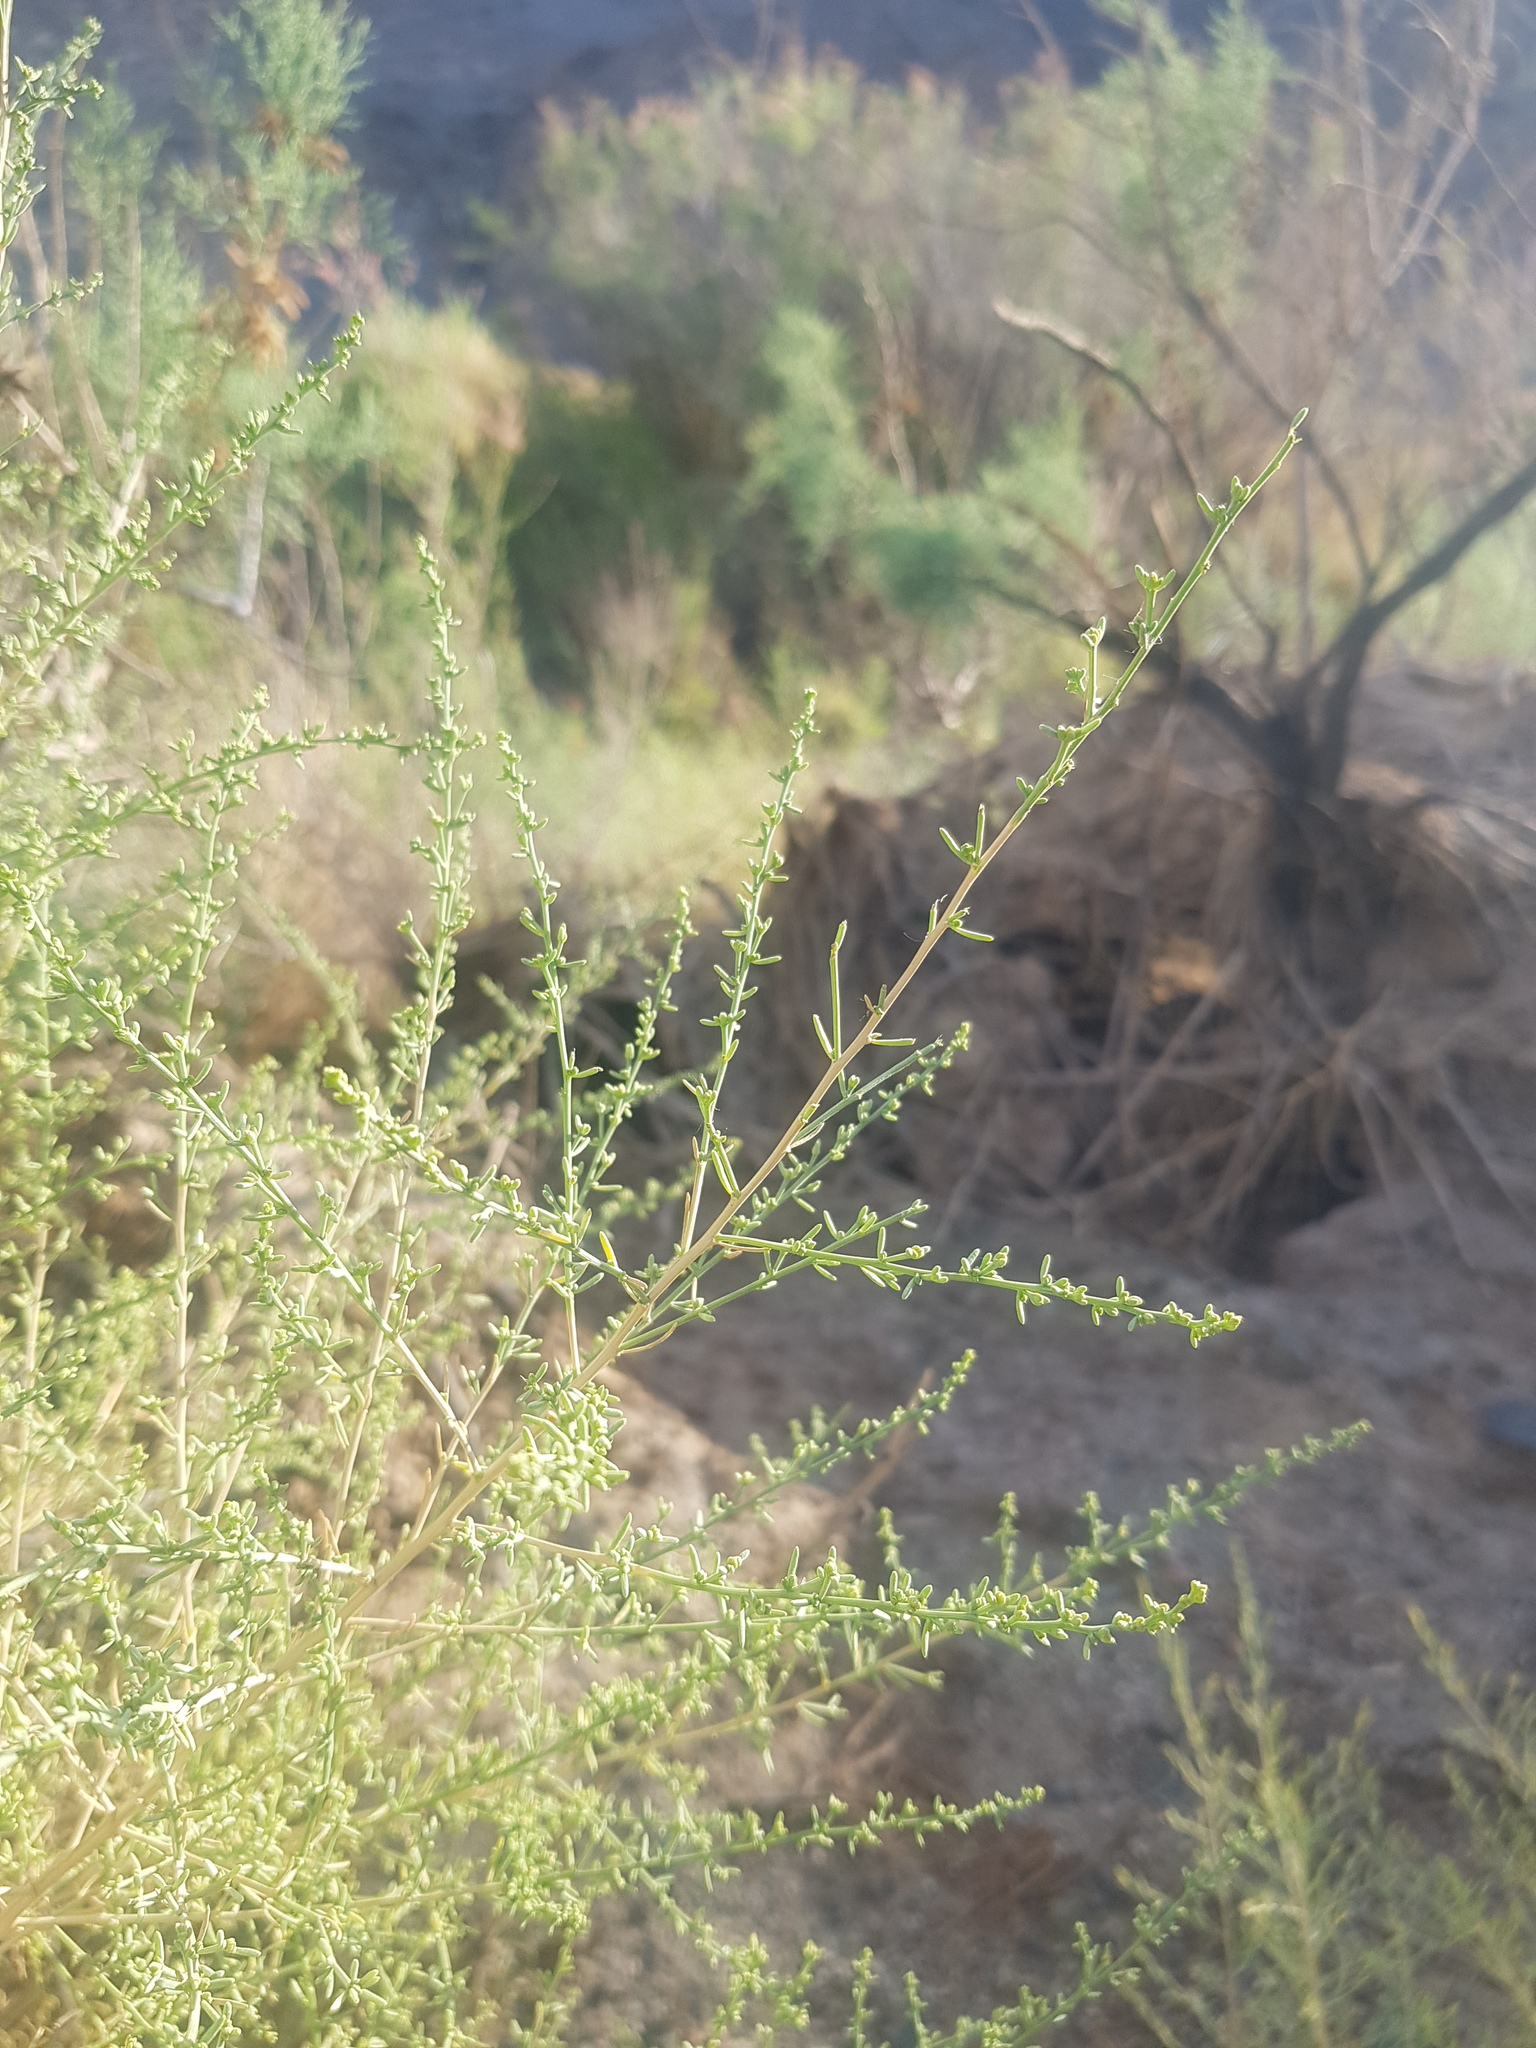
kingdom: Plantae
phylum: Tracheophyta
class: Magnoliopsida
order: Caryophyllales
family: Amaranthaceae
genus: Sympegma
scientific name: Sympegma regelii
